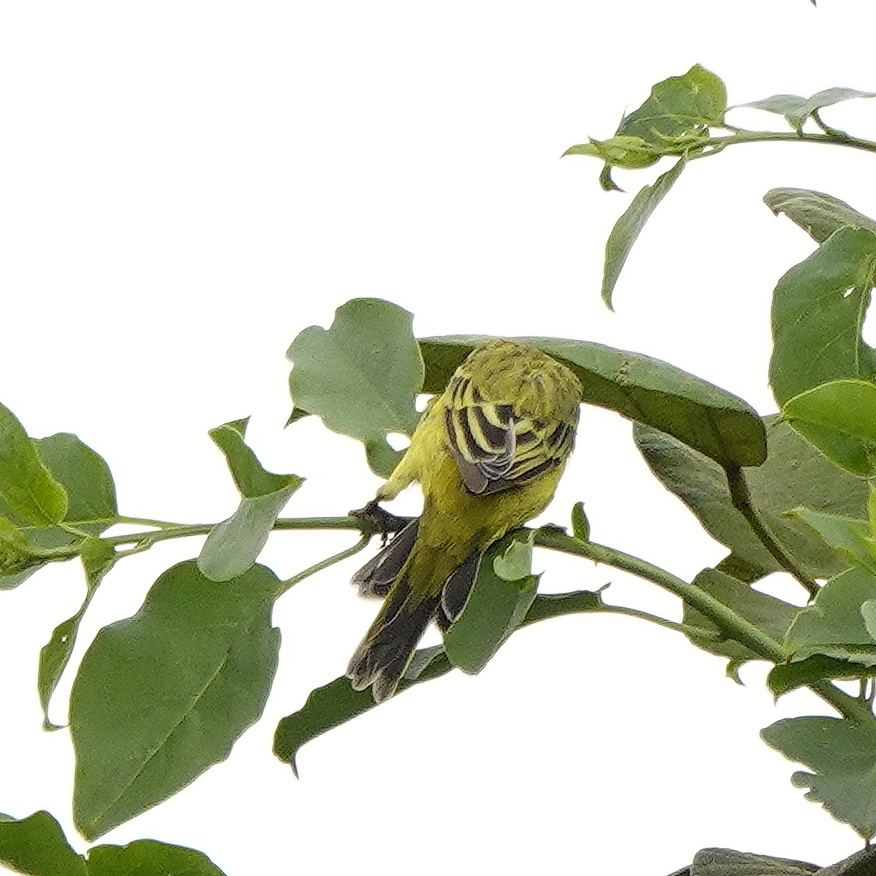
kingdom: Animalia
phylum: Chordata
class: Aves
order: Passeriformes
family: Fringillidae
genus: Crithagra
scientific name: Crithagra sulphurata
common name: Brimstone canary
